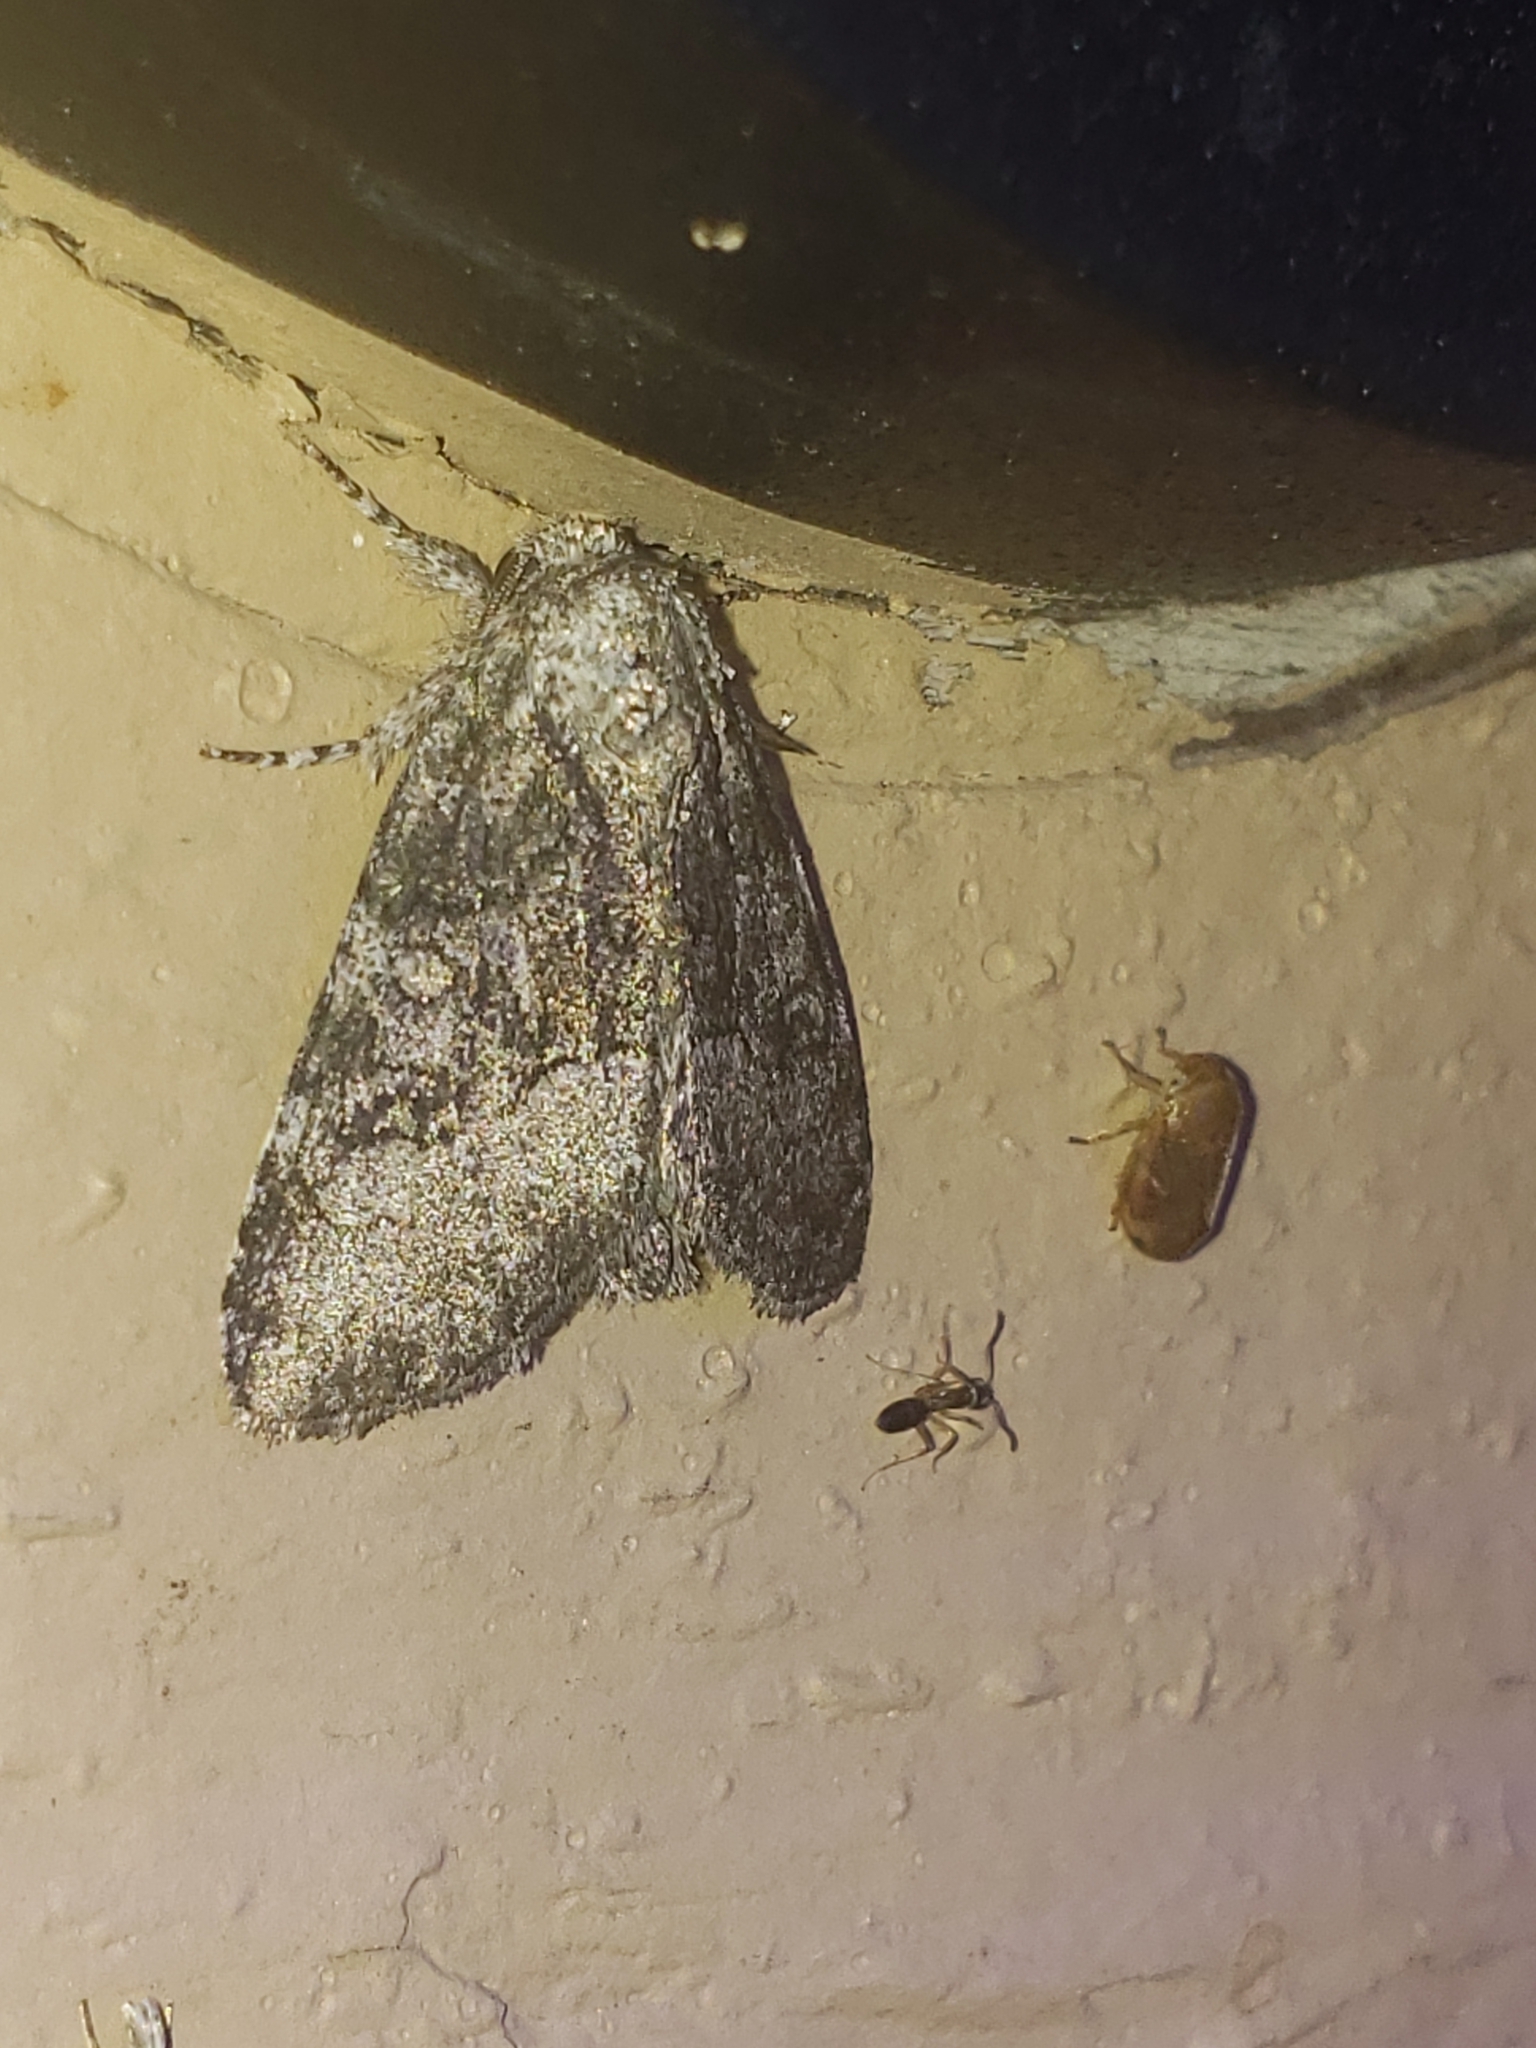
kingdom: Animalia
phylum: Arthropoda
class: Insecta
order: Lepidoptera
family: Noctuidae
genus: Raphia
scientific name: Raphia frater
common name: Brother
